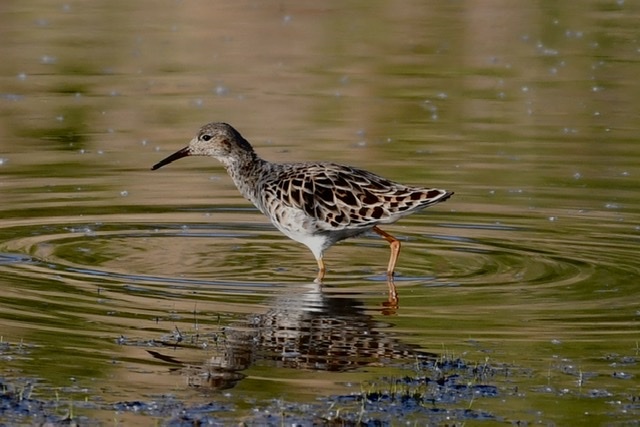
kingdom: Animalia
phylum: Chordata
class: Aves
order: Charadriiformes
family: Scolopacidae
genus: Calidris
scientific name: Calidris pugnax
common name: Ruff
